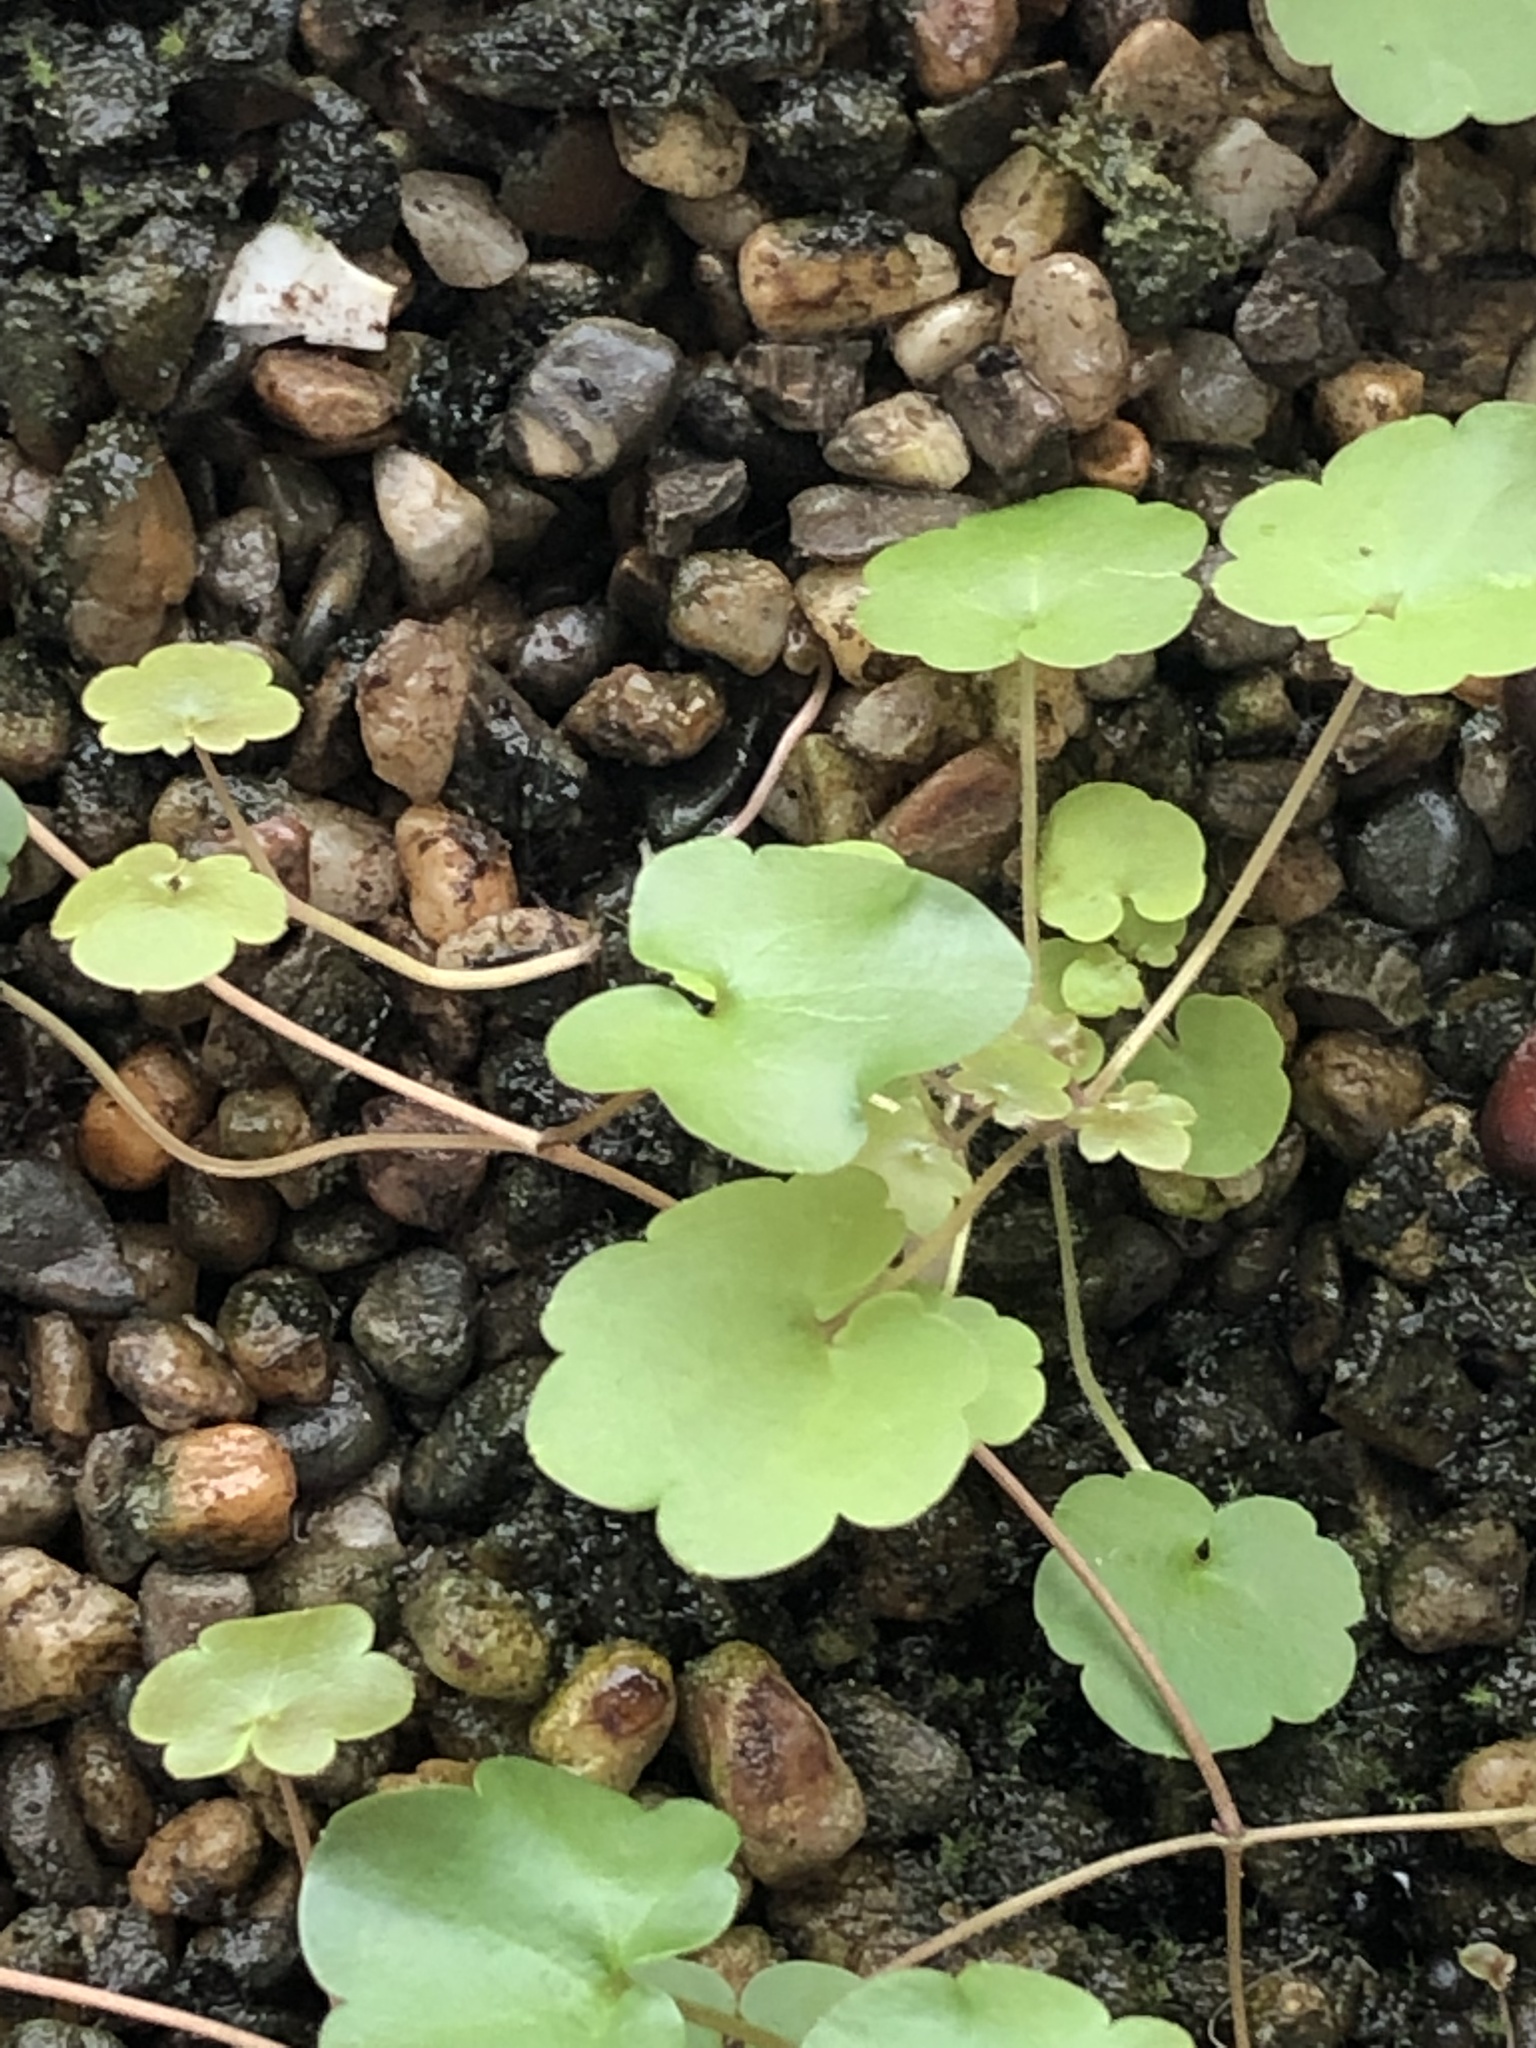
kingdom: Plantae
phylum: Tracheophyta
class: Magnoliopsida
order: Lamiales
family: Plantaginaceae
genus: Cymbalaria
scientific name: Cymbalaria muralis
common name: Ivy-leaved toadflax
